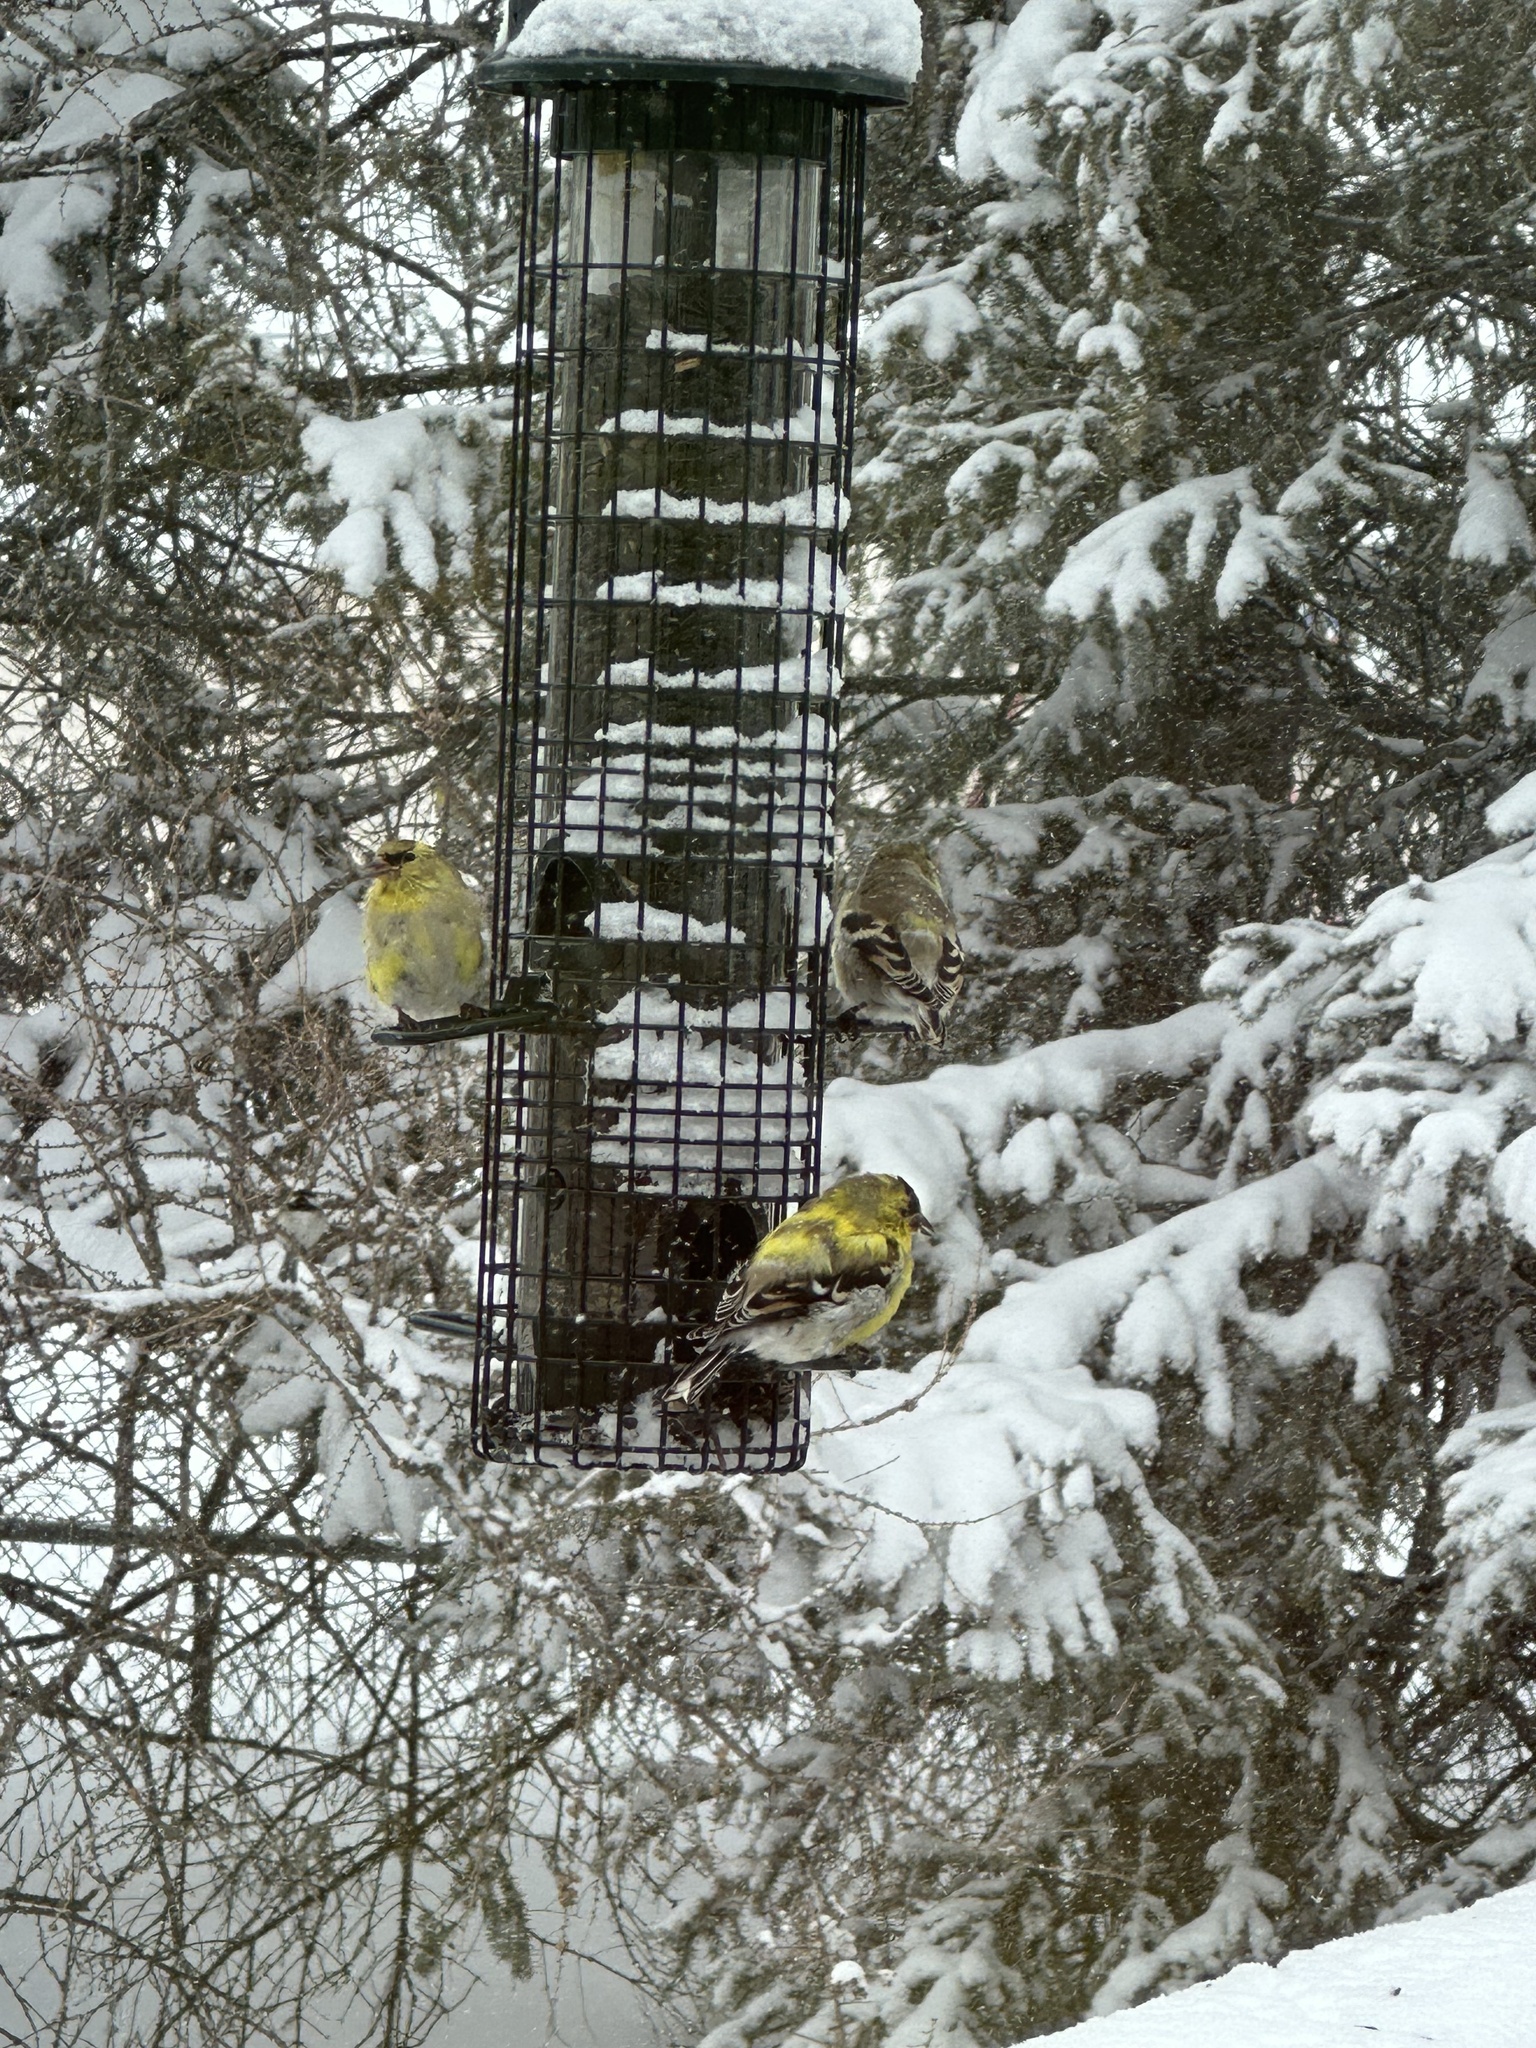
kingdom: Animalia
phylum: Chordata
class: Aves
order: Passeriformes
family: Fringillidae
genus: Spinus
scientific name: Spinus tristis
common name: American goldfinch
